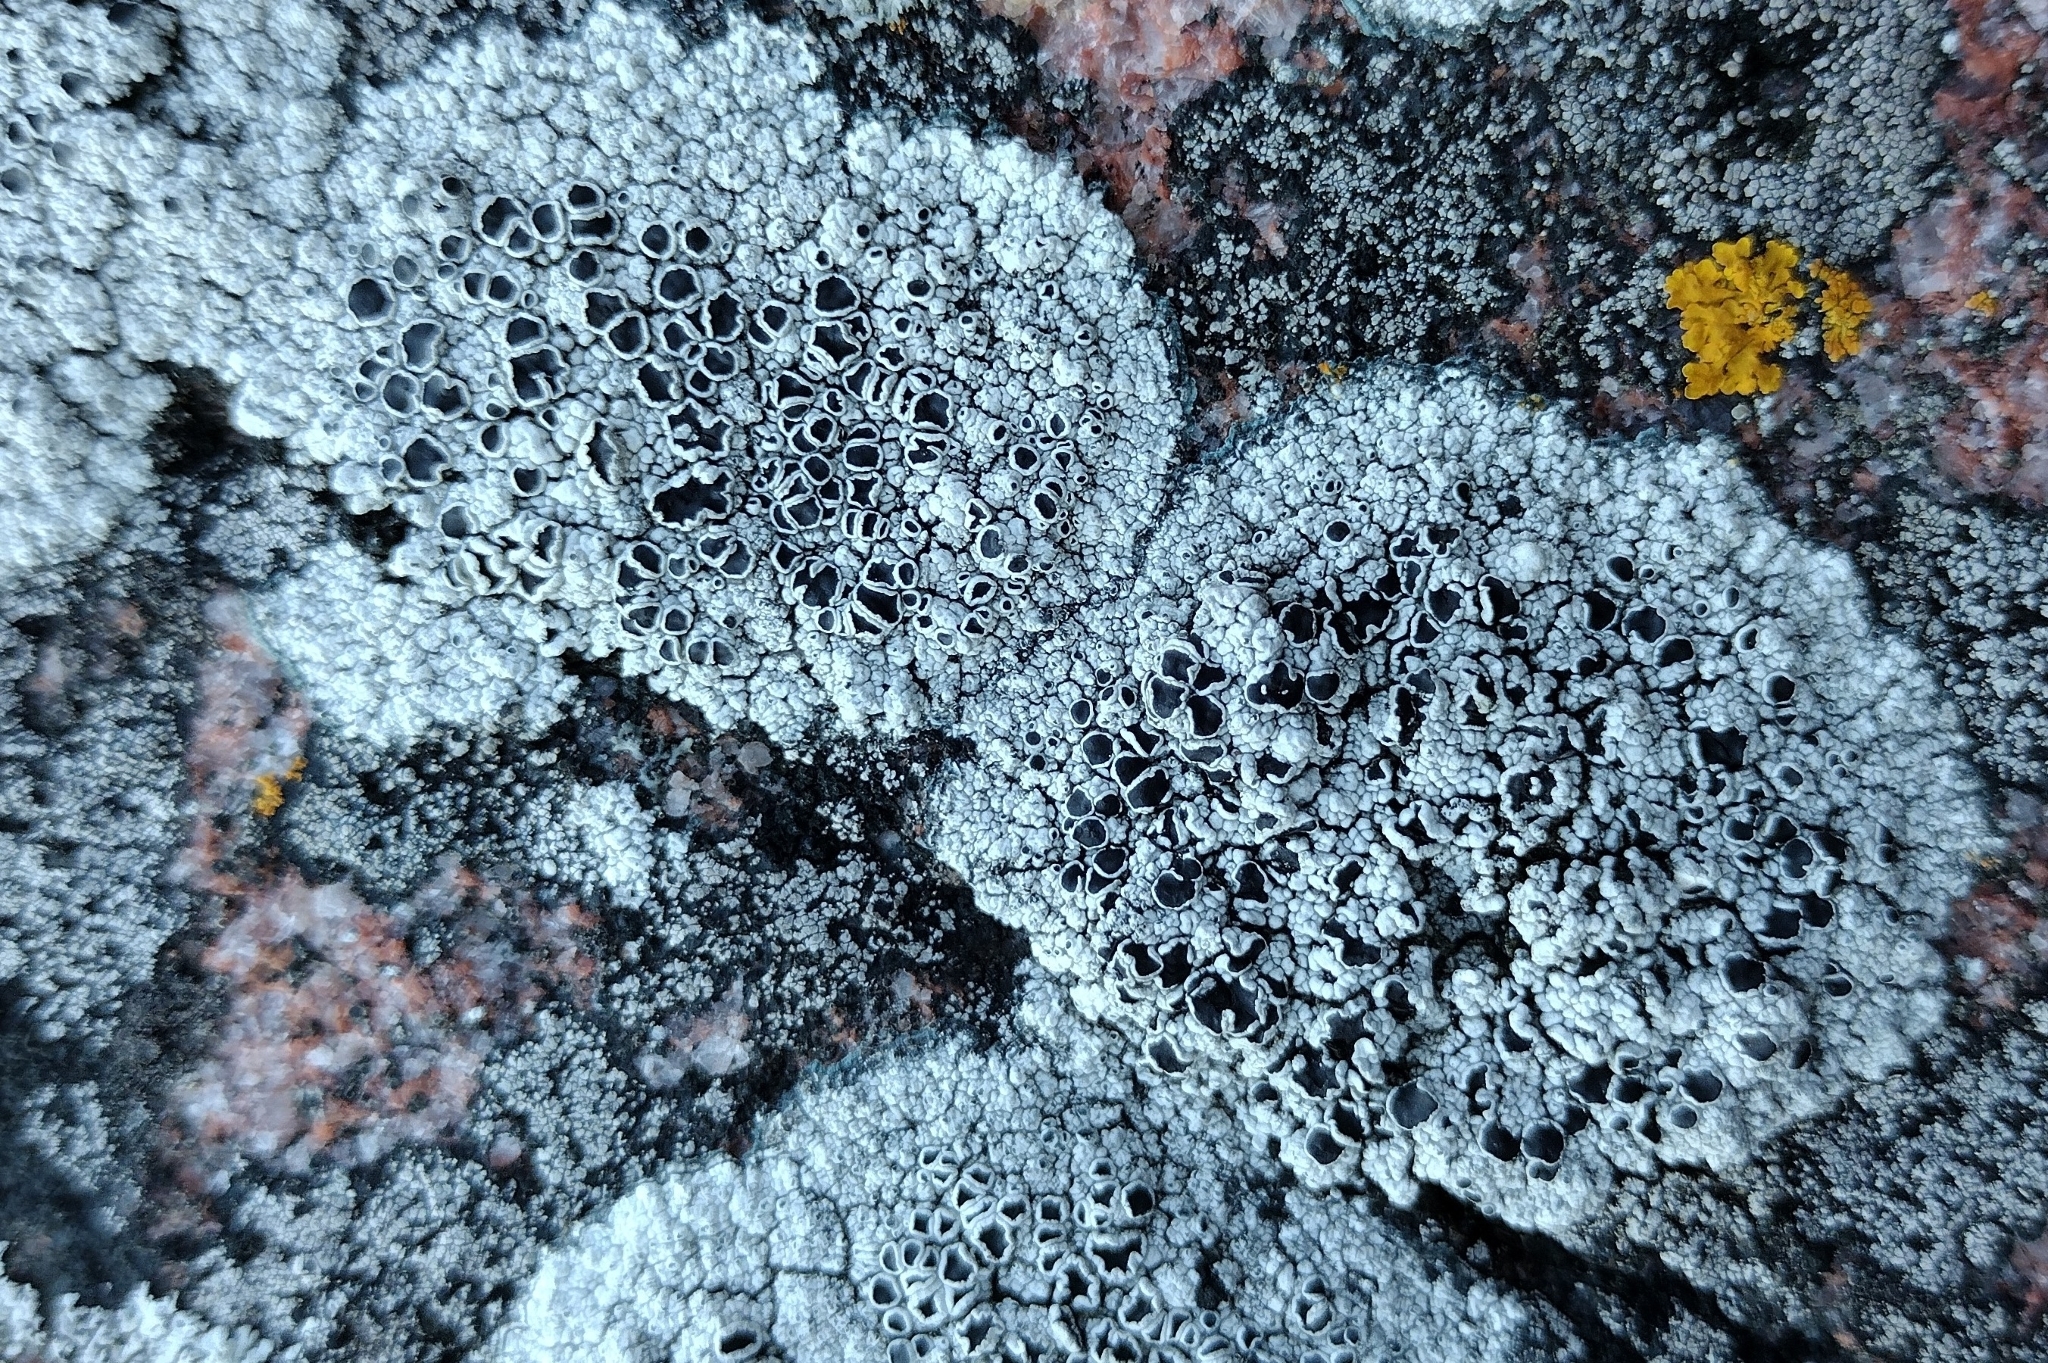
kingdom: Fungi
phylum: Ascomycota
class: Lecanoromycetes
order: Lecanorales
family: Tephromelataceae
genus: Tephromela
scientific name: Tephromela atra
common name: Black shields
